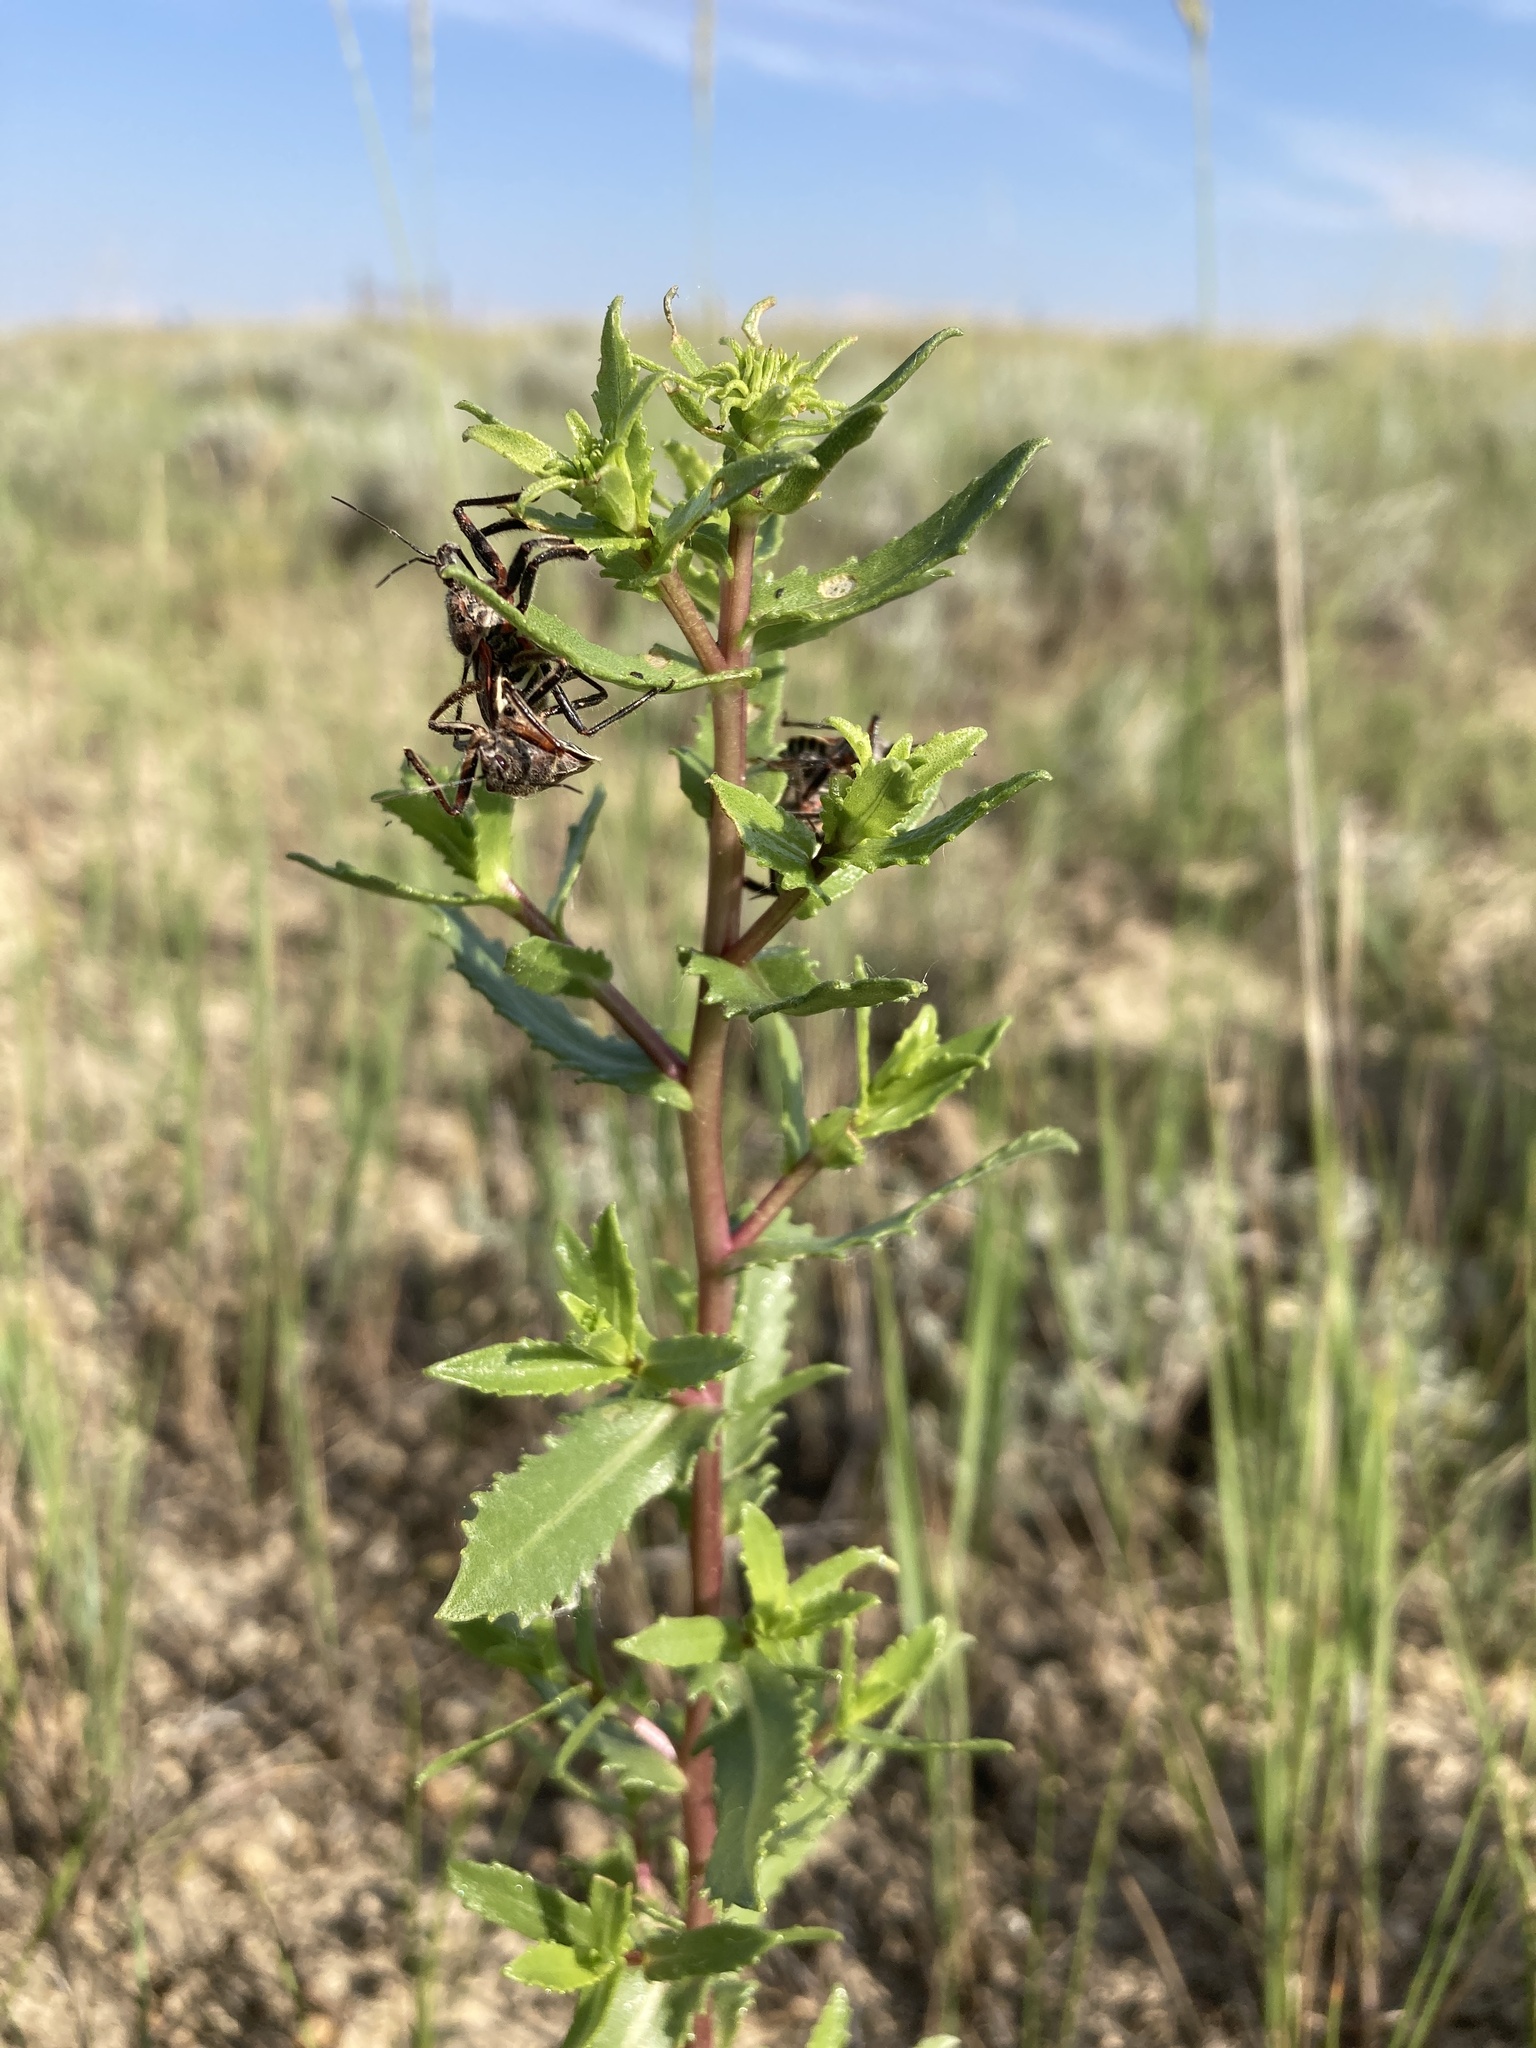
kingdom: Plantae
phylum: Tracheophyta
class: Magnoliopsida
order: Asterales
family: Asteraceae
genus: Grindelia
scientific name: Grindelia squarrosa
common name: Curly-cup gumweed
